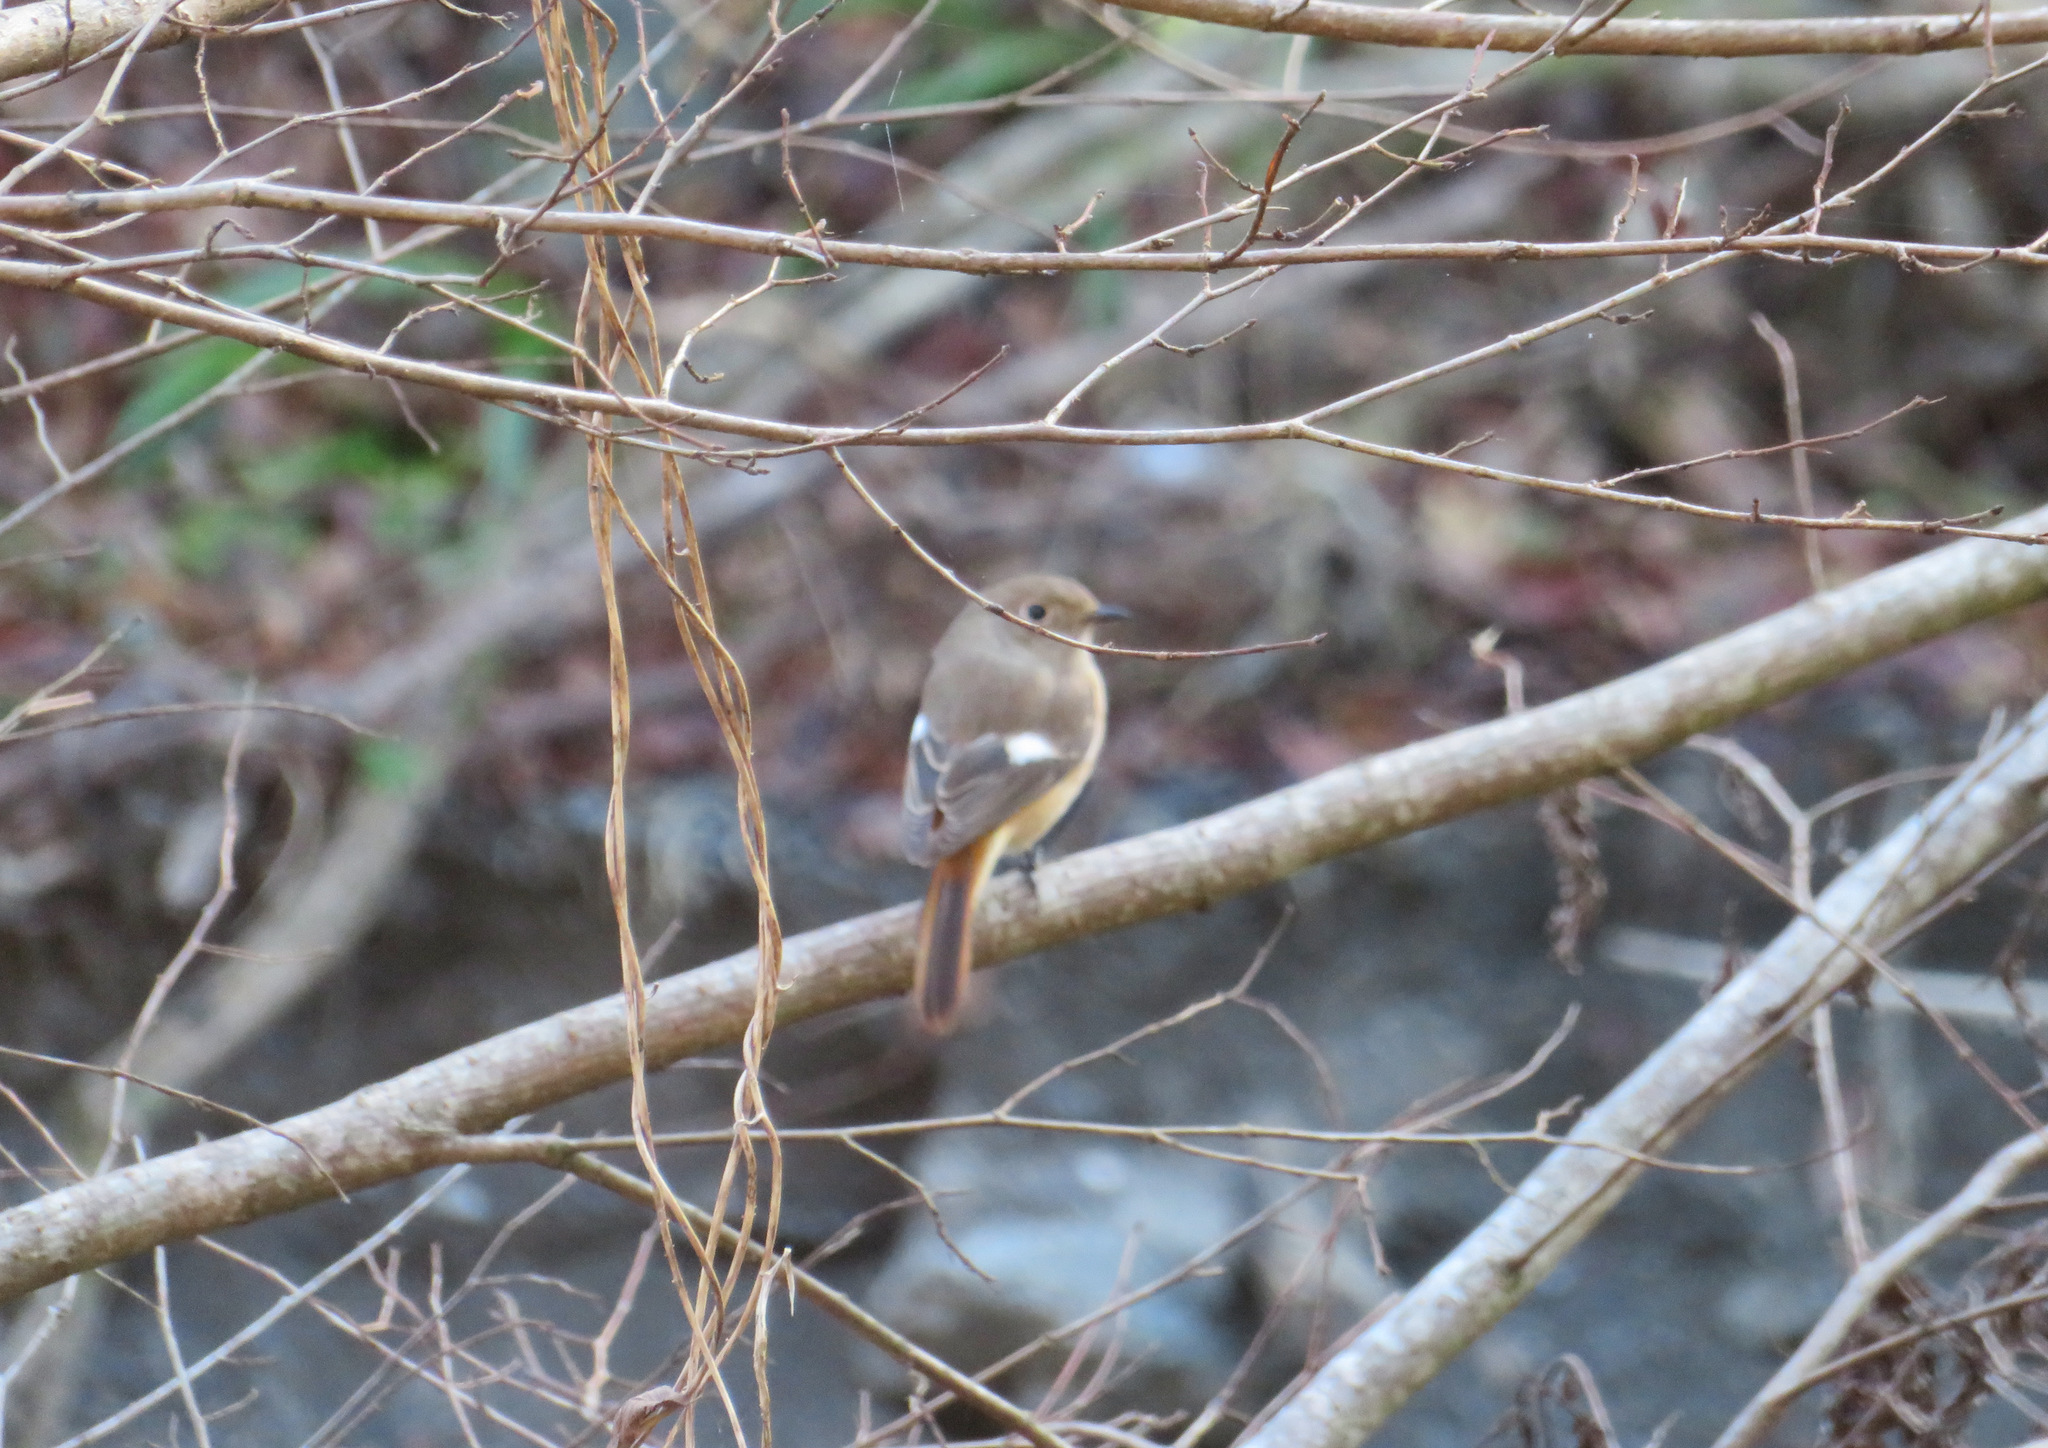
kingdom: Animalia
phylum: Chordata
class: Aves
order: Passeriformes
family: Muscicapidae
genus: Phoenicurus
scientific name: Phoenicurus auroreus
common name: Daurian redstart
